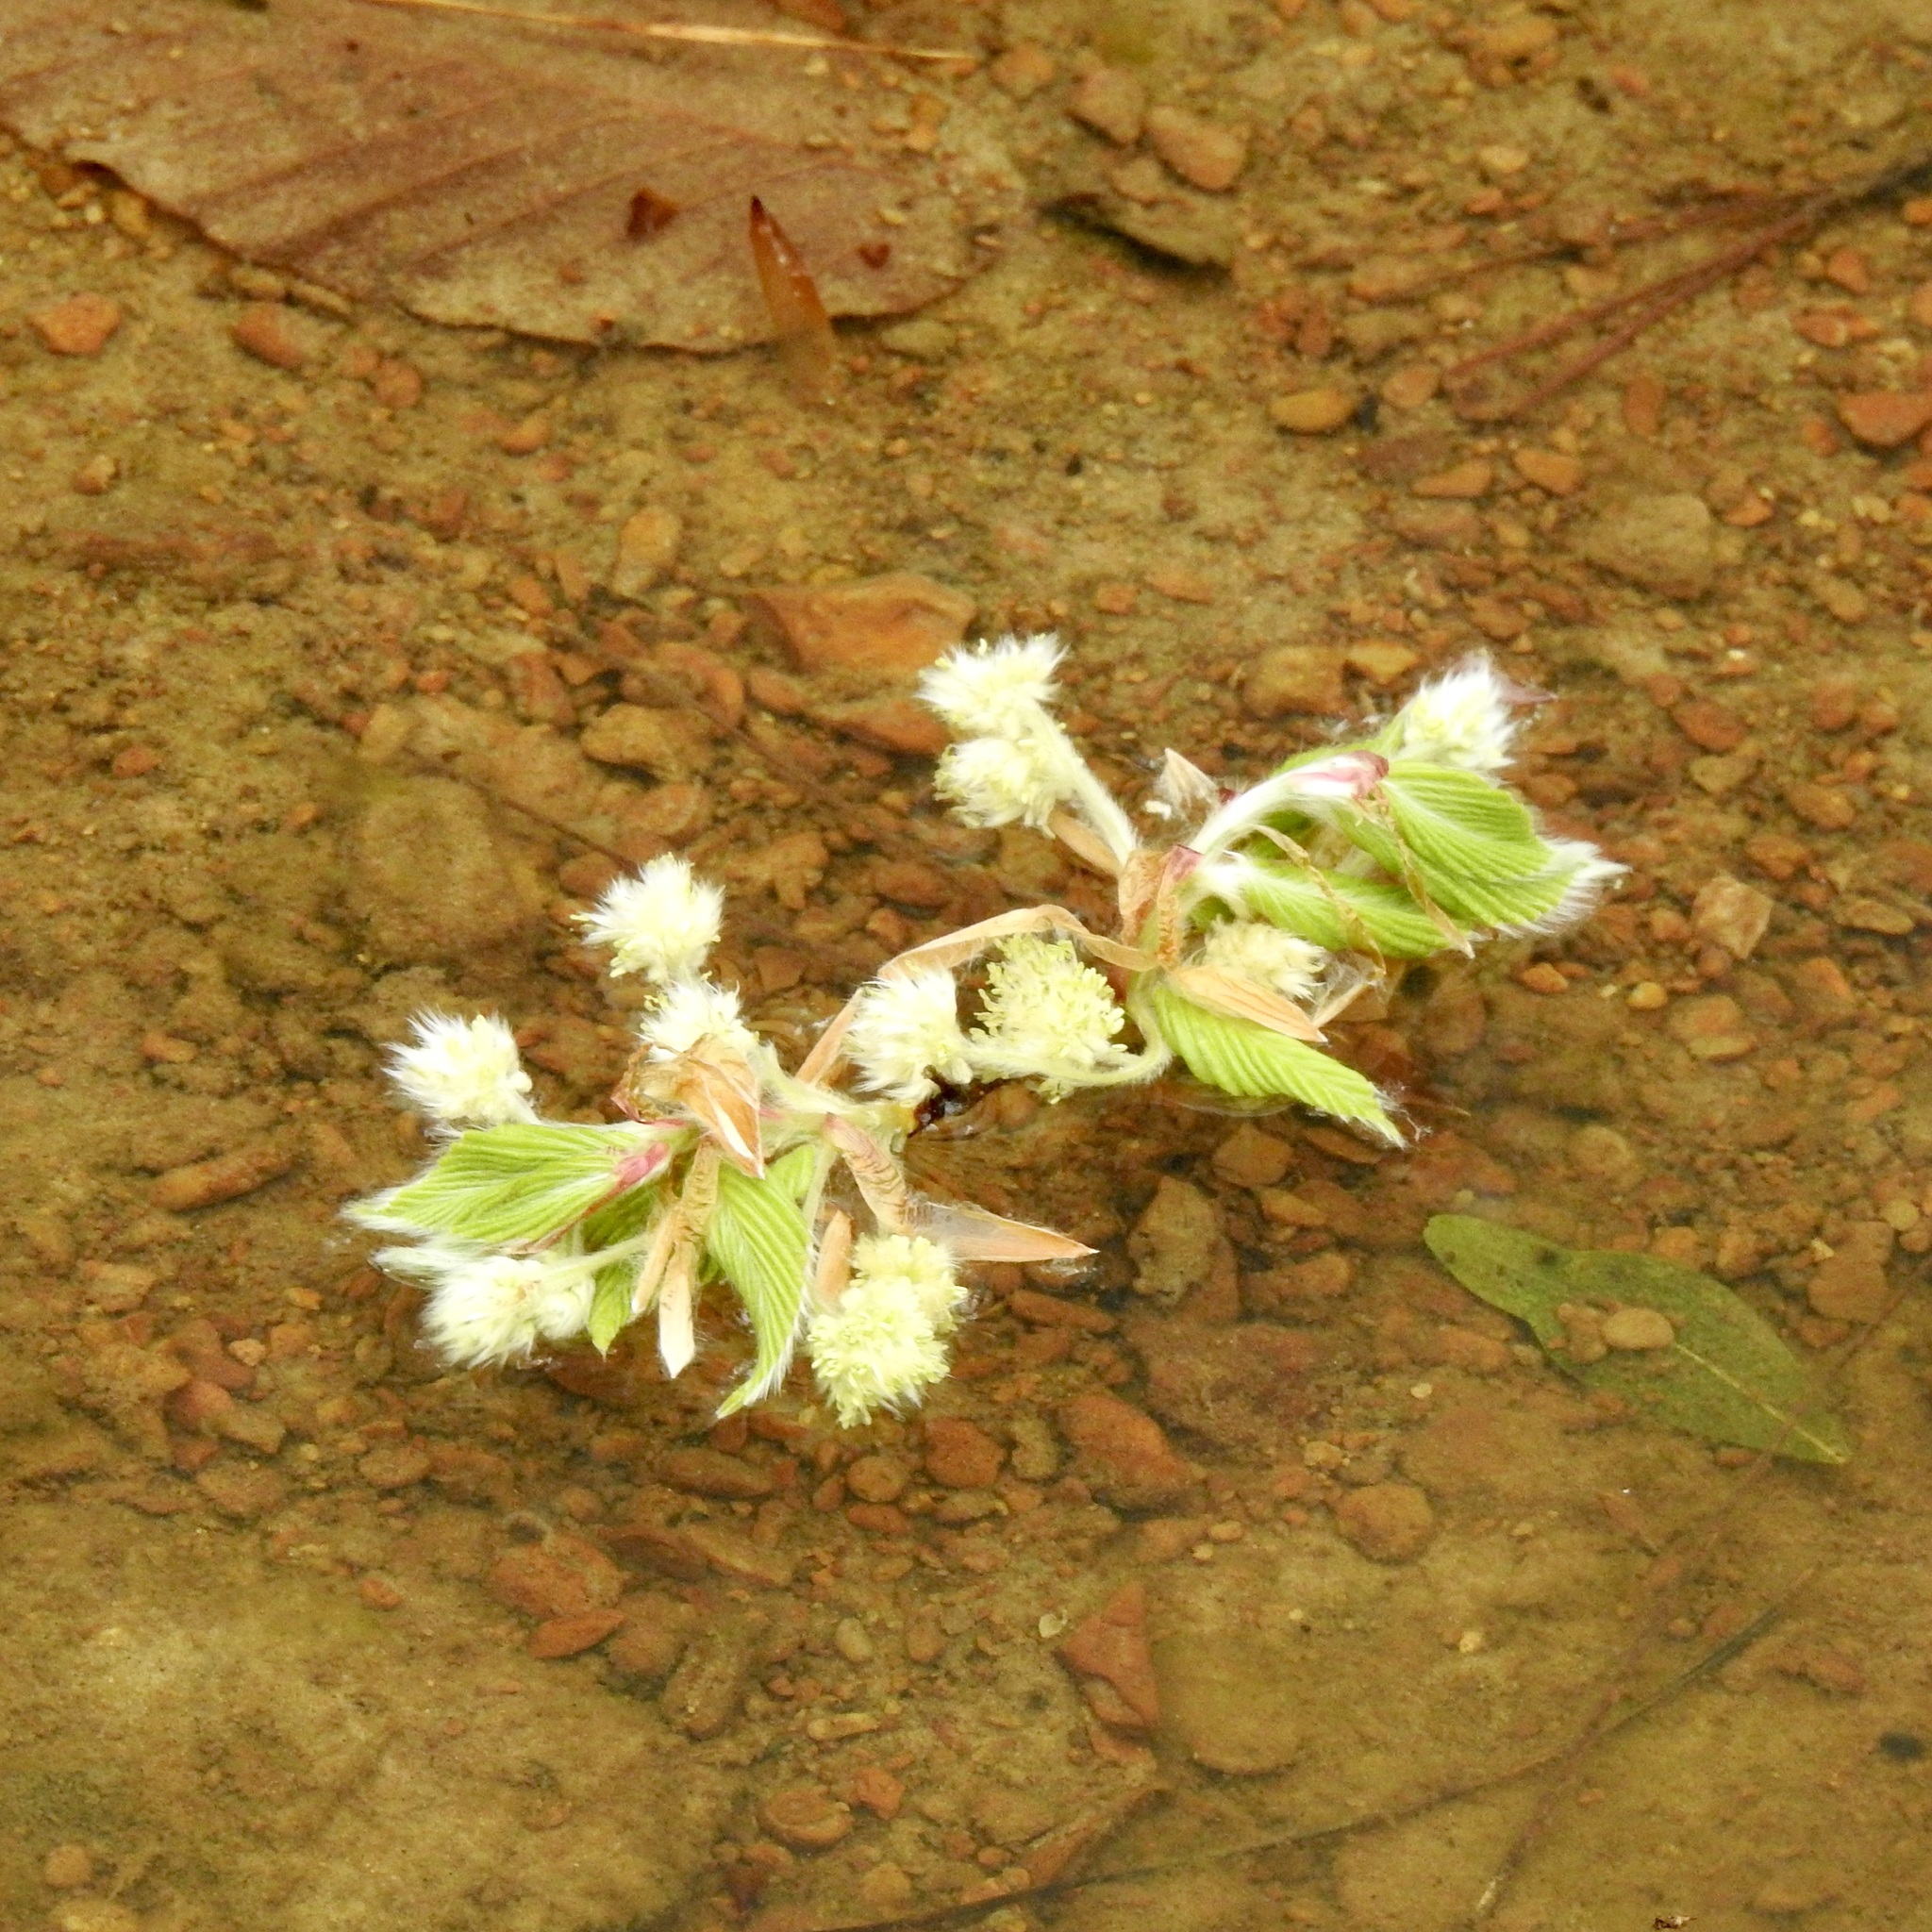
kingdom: Plantae
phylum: Tracheophyta
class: Magnoliopsida
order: Fagales
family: Fagaceae
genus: Fagus
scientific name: Fagus grandifolia
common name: American beech
